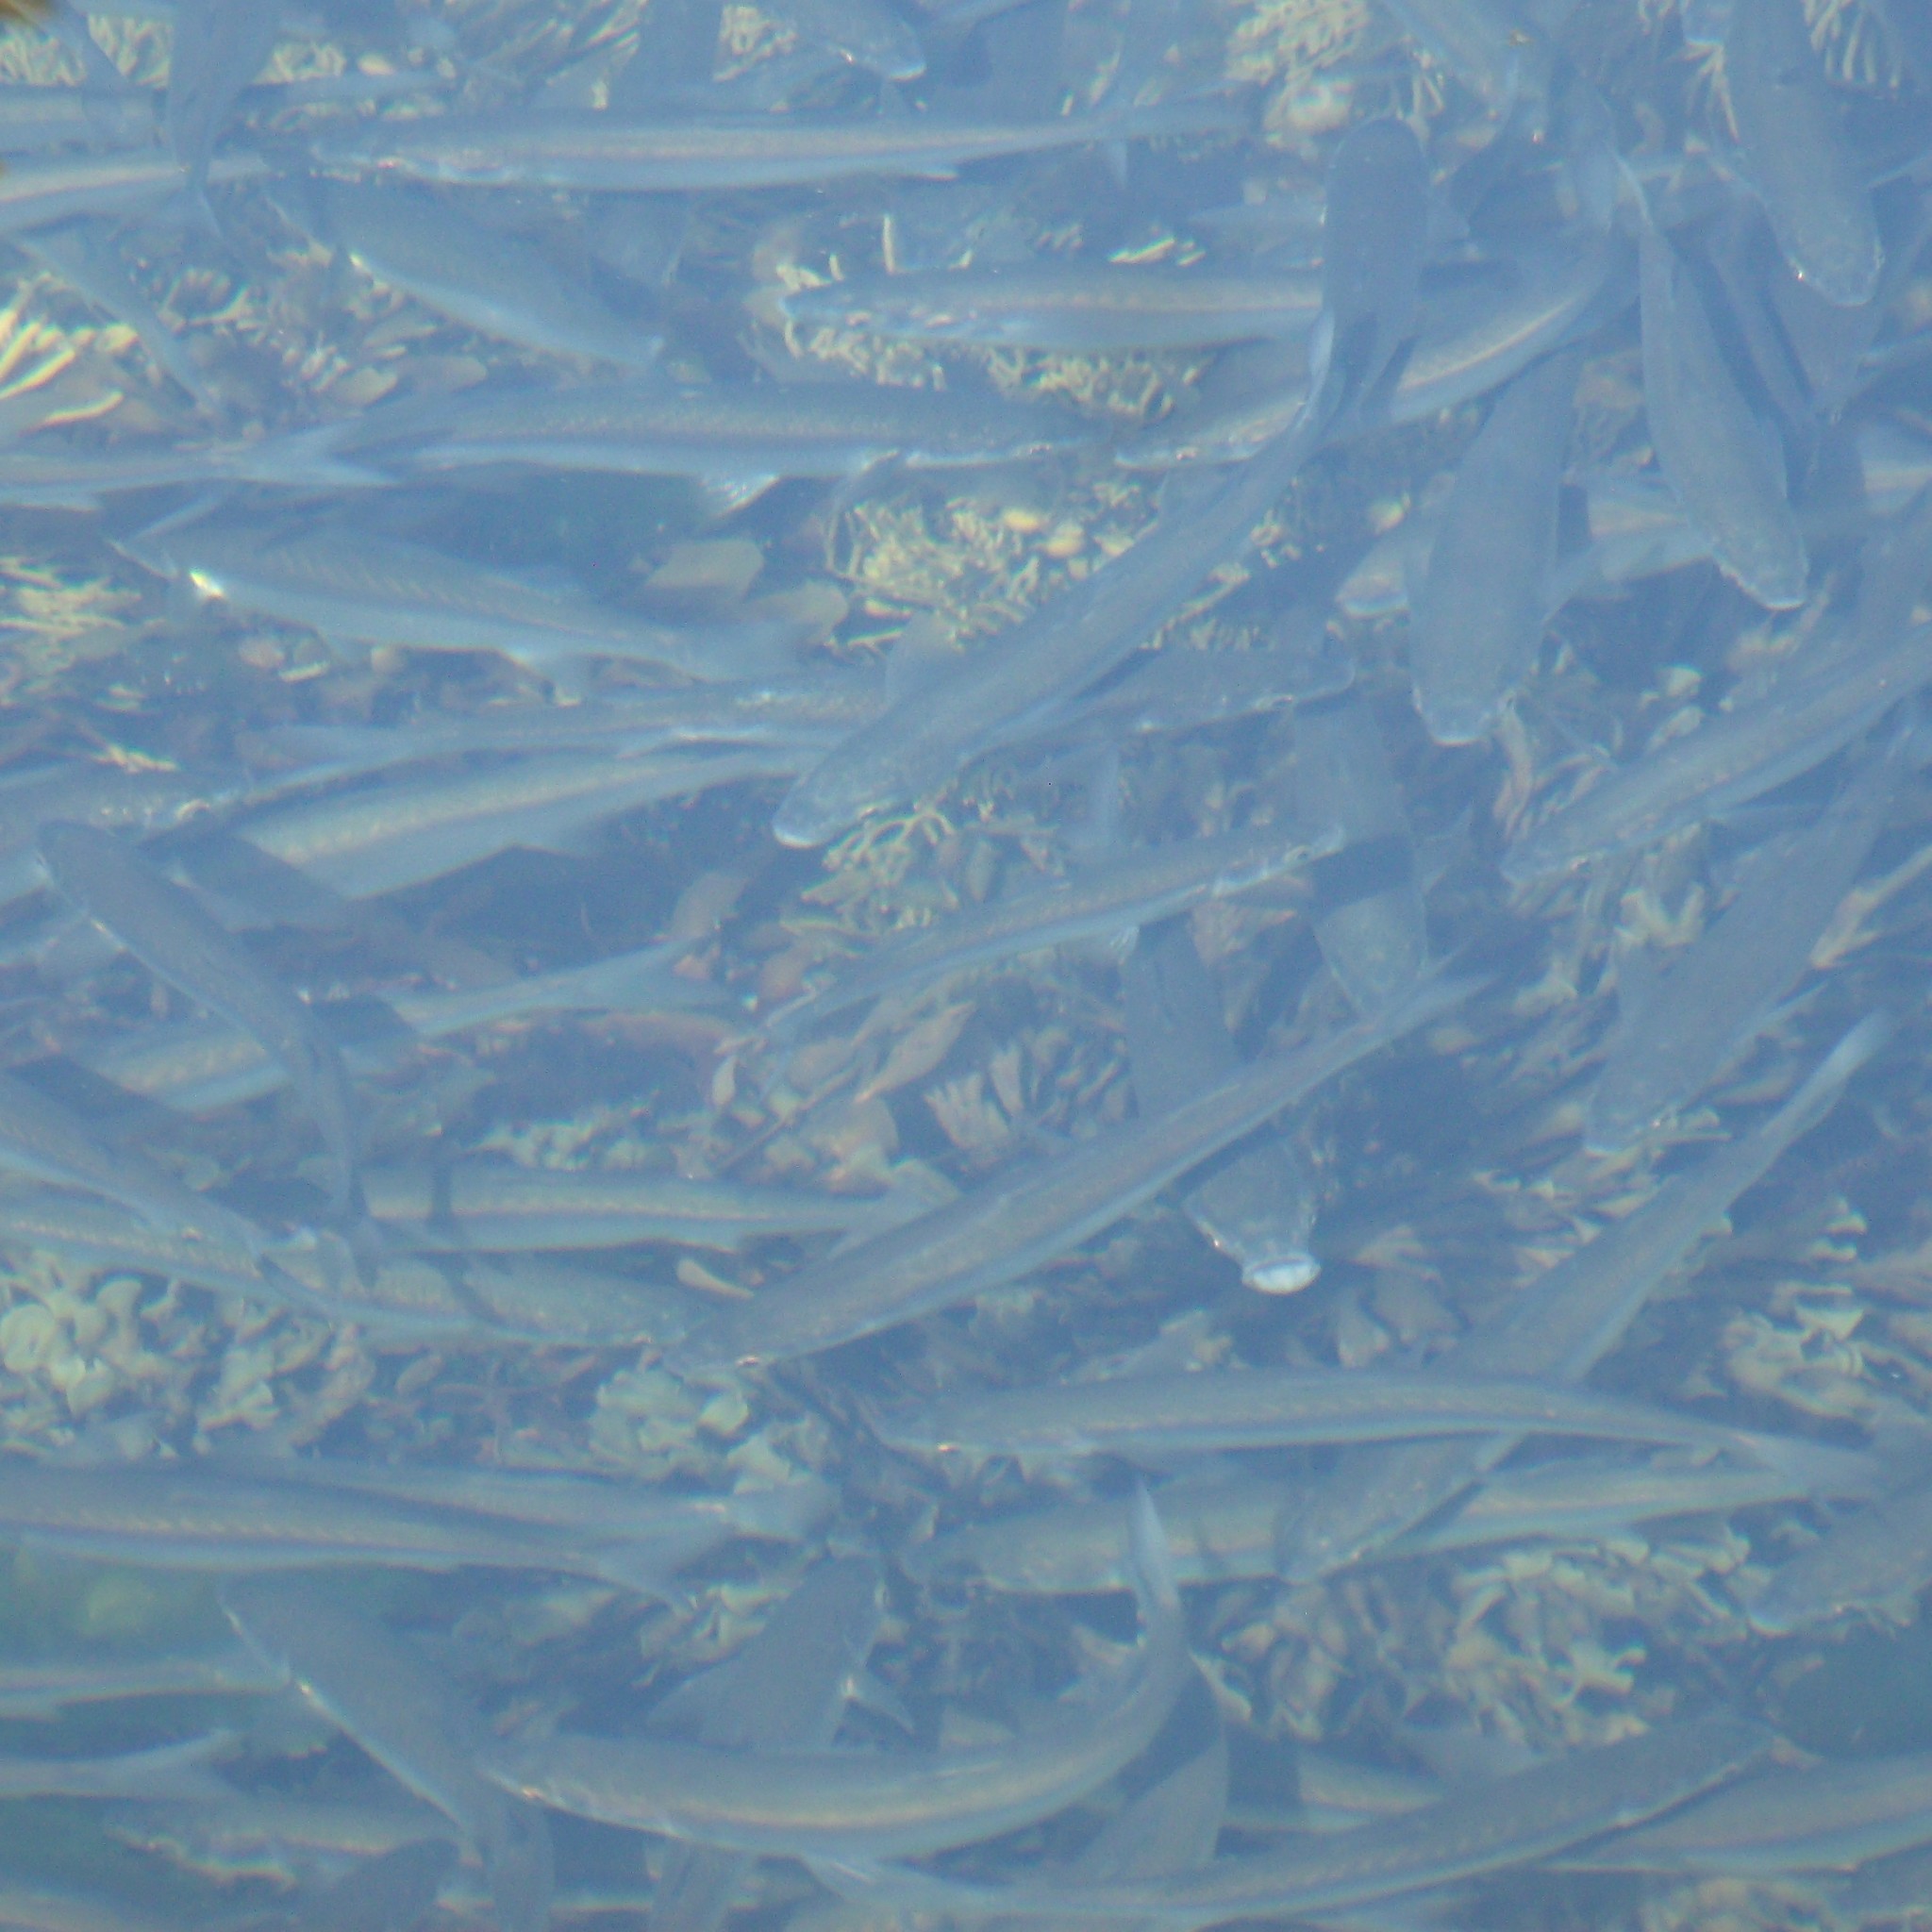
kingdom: Animalia
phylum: Chordata
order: Mugiliformes
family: Mugilidae
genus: Aldrichetta
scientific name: Aldrichetta forsteri
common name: Yellow-eye mullet
